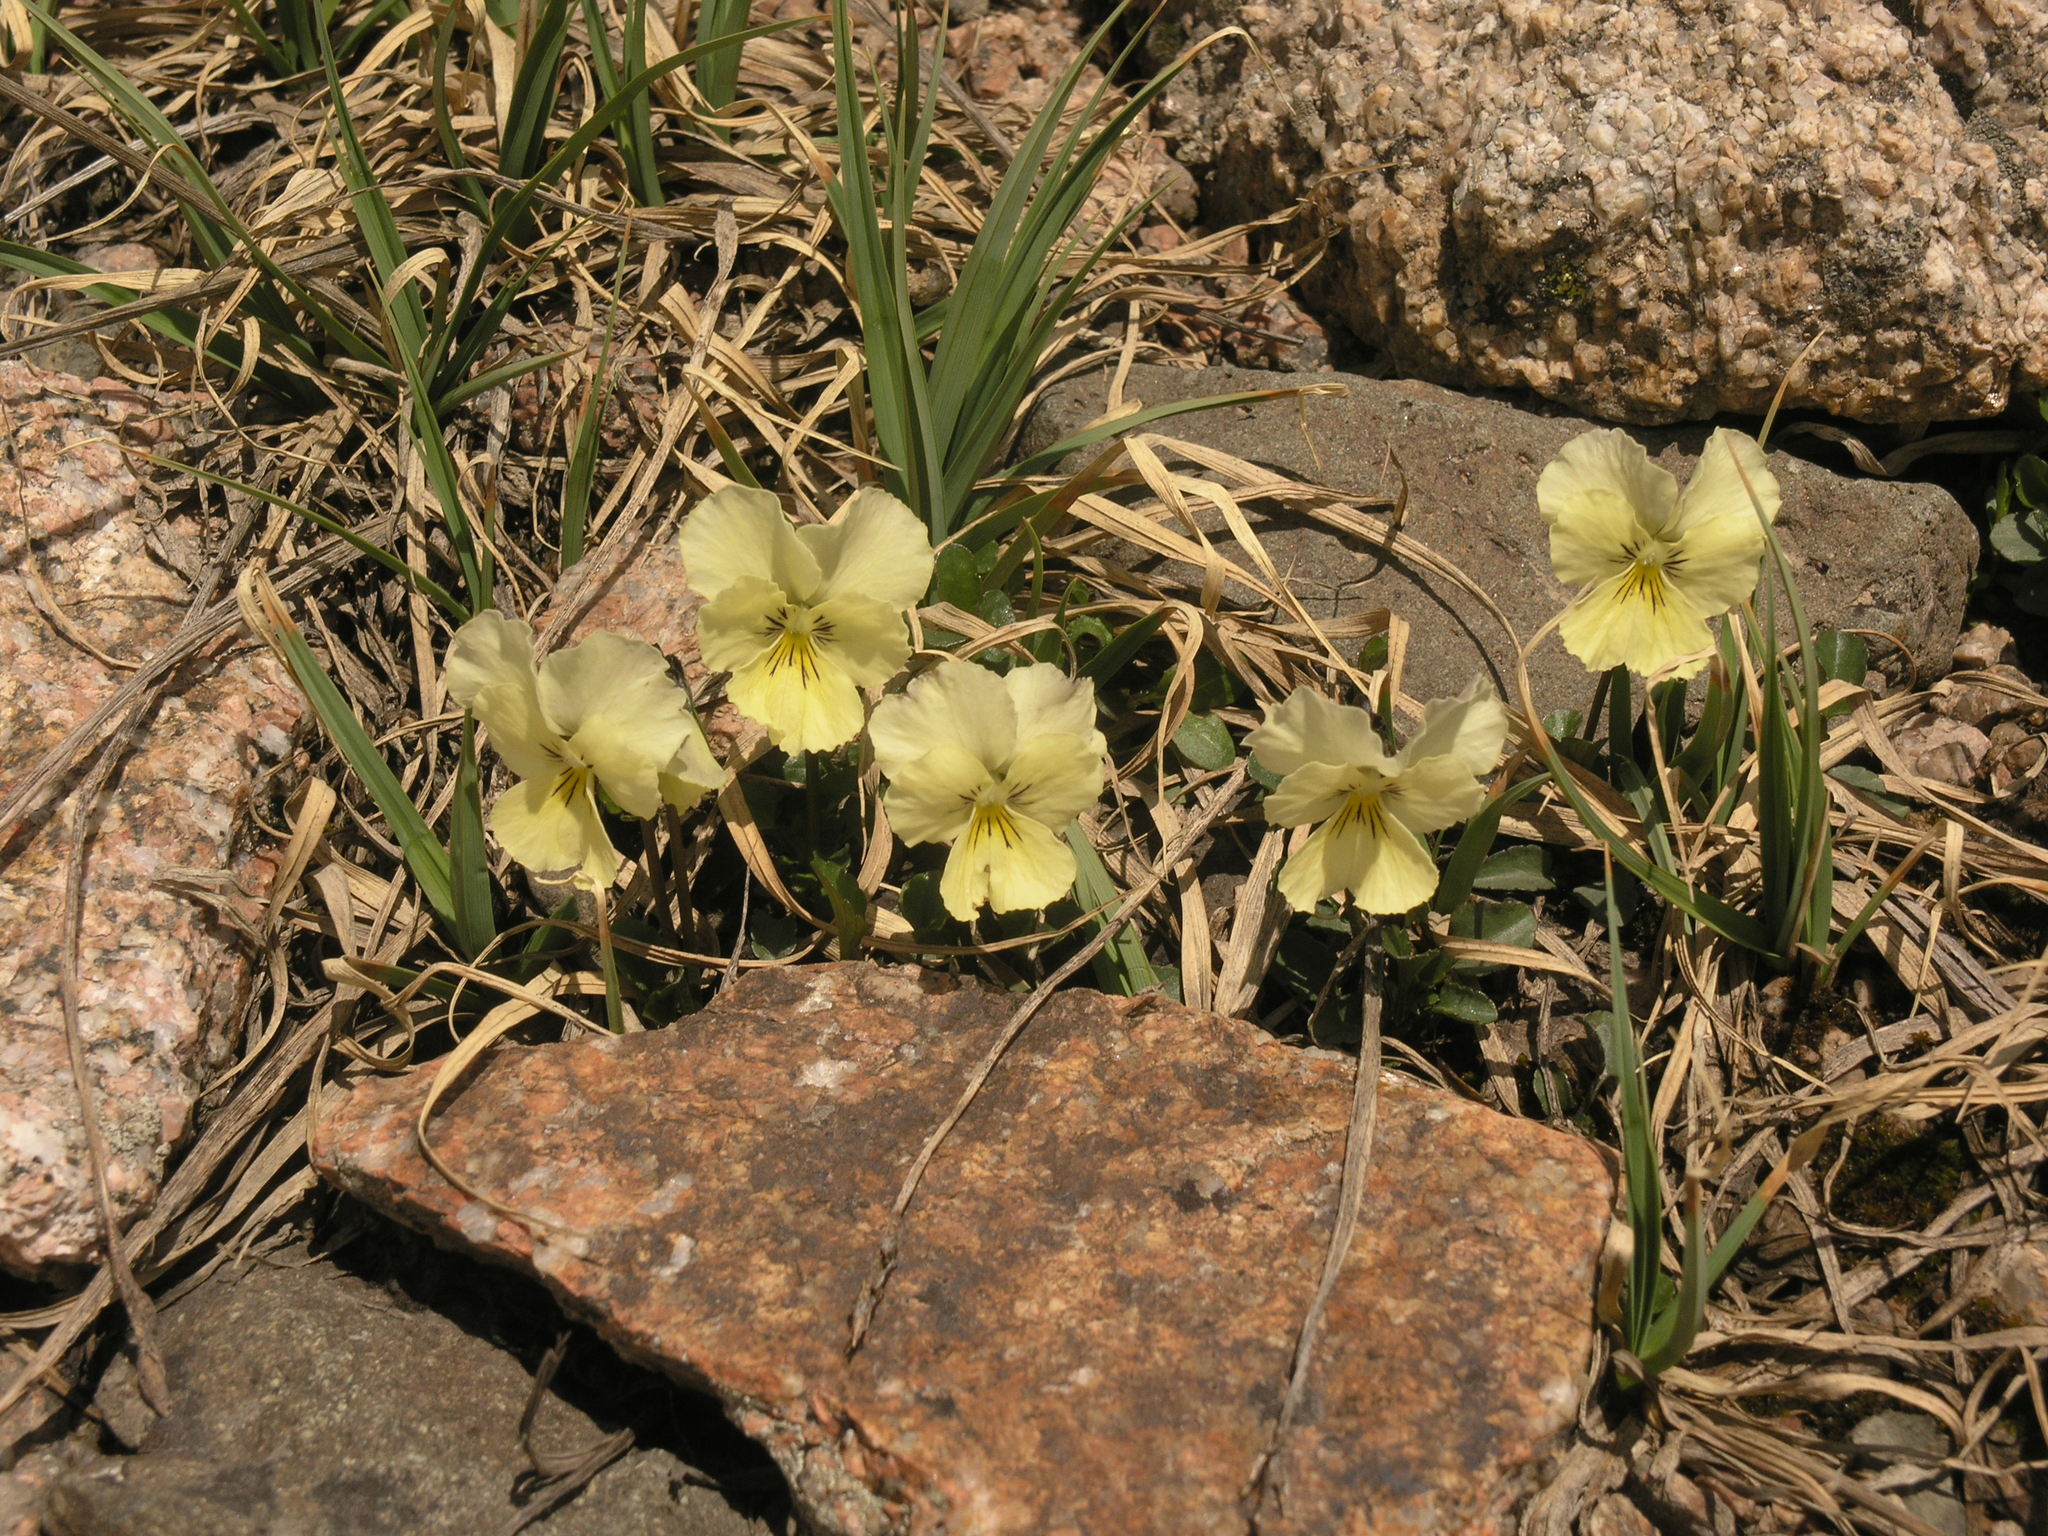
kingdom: Plantae
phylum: Tracheophyta
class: Magnoliopsida
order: Malpighiales
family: Violaceae
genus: Viola
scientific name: Viola altaica
